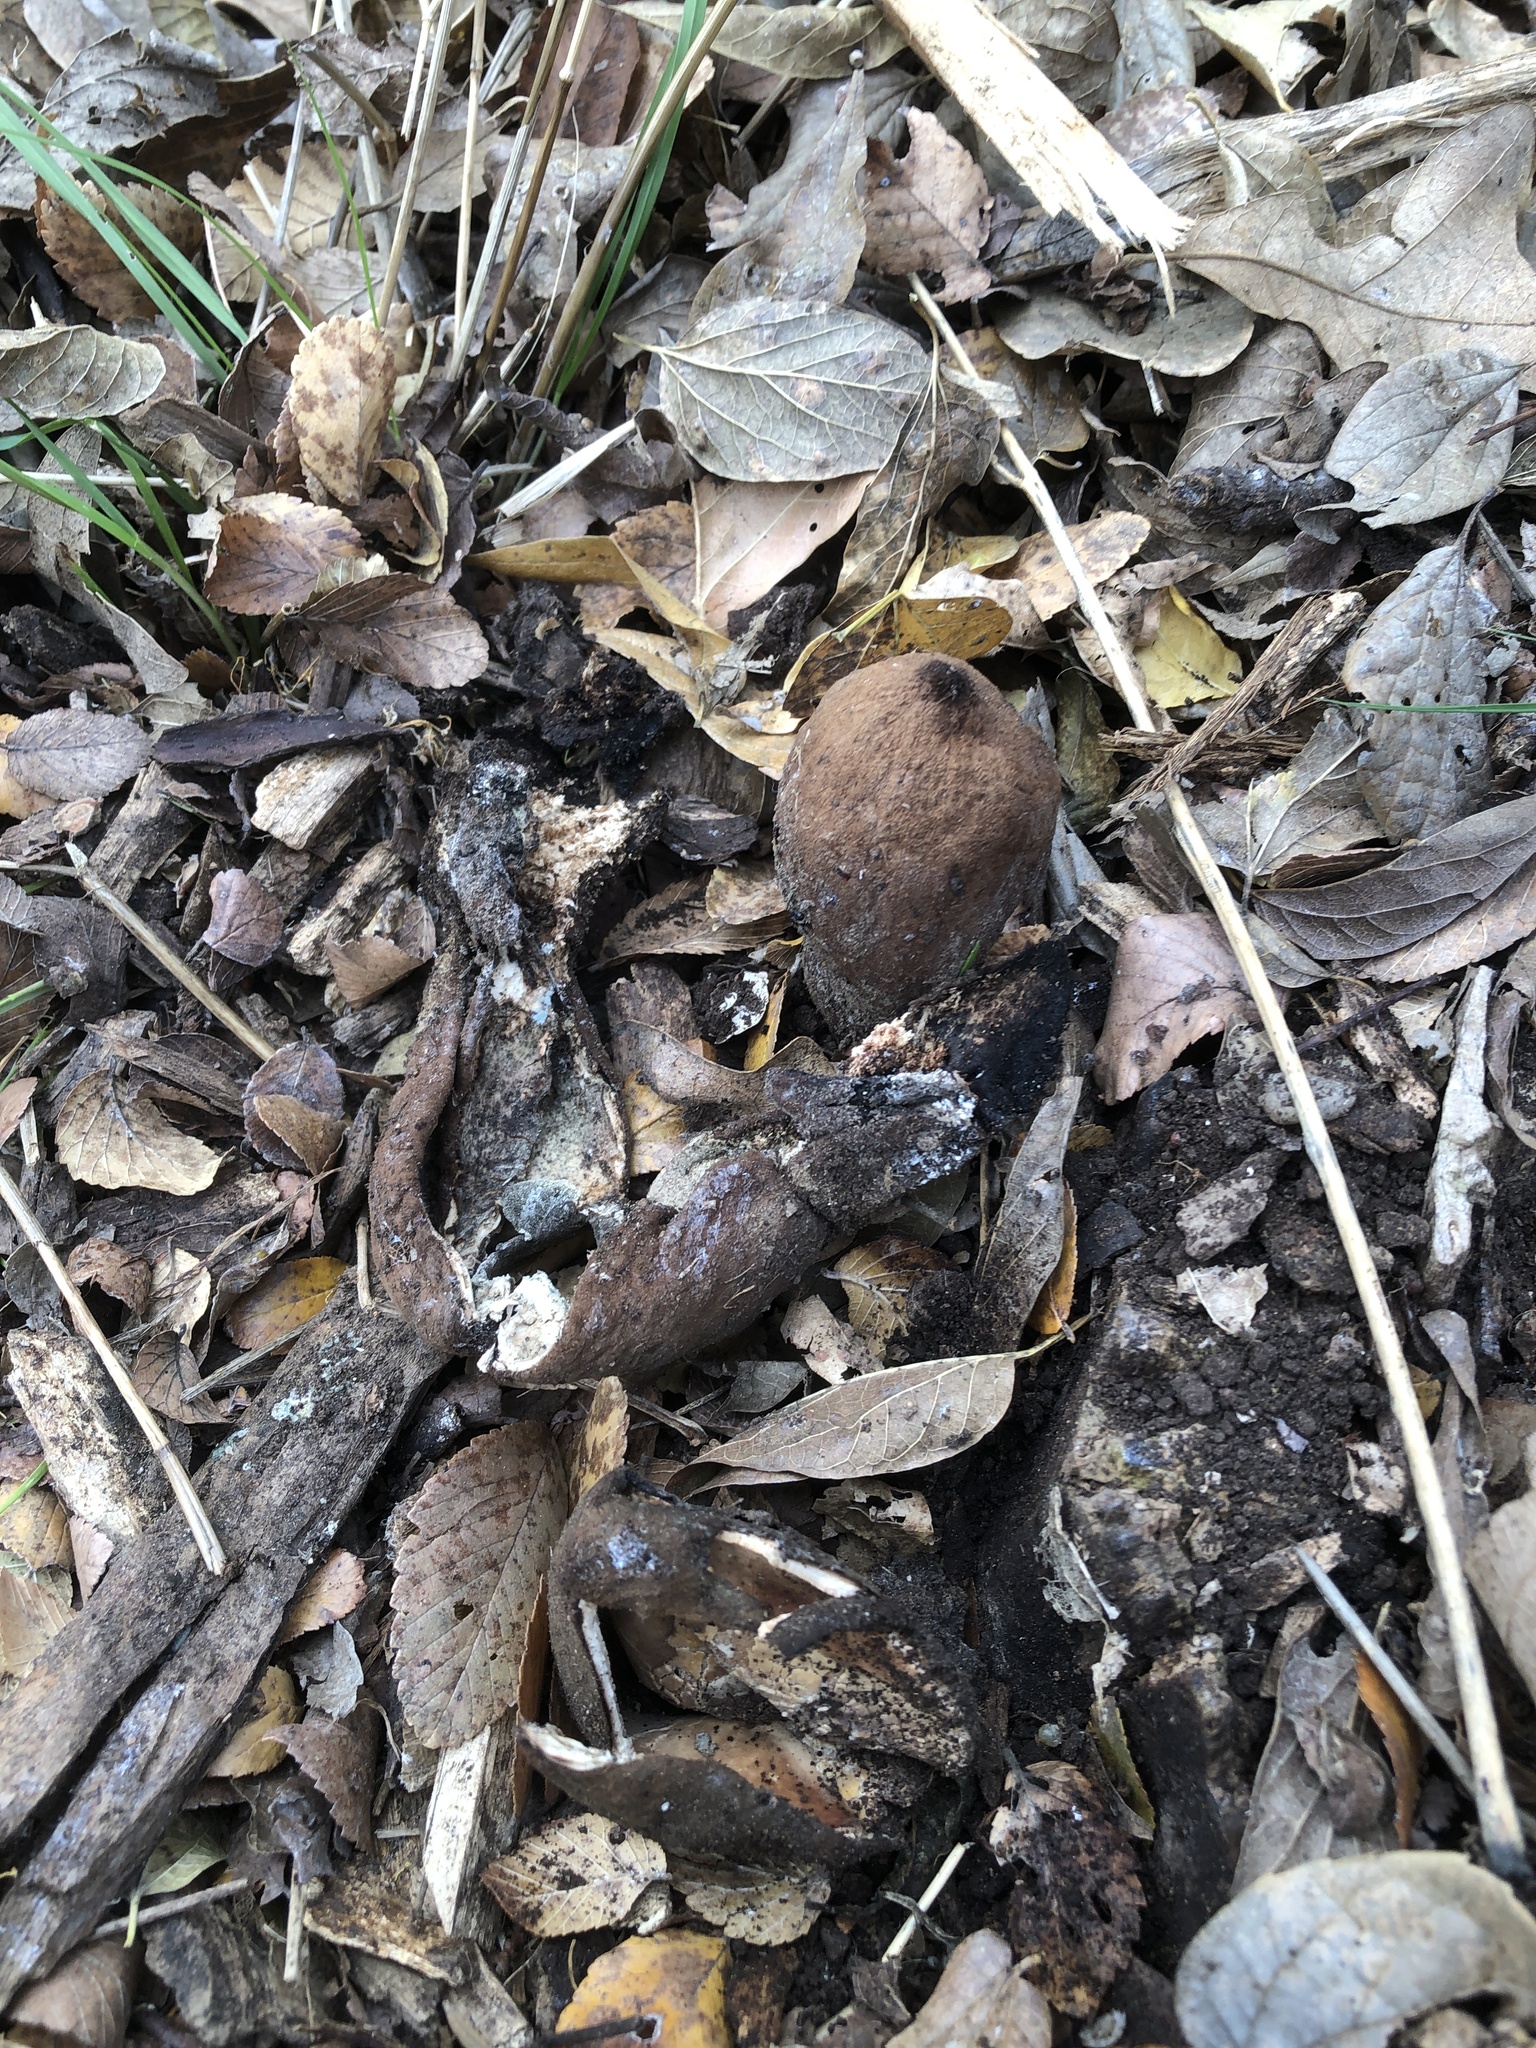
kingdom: Fungi
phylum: Ascomycota
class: Pezizomycetes
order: Pezizales
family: Chorioactidaceae
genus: Chorioactis
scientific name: Chorioactis geaster
